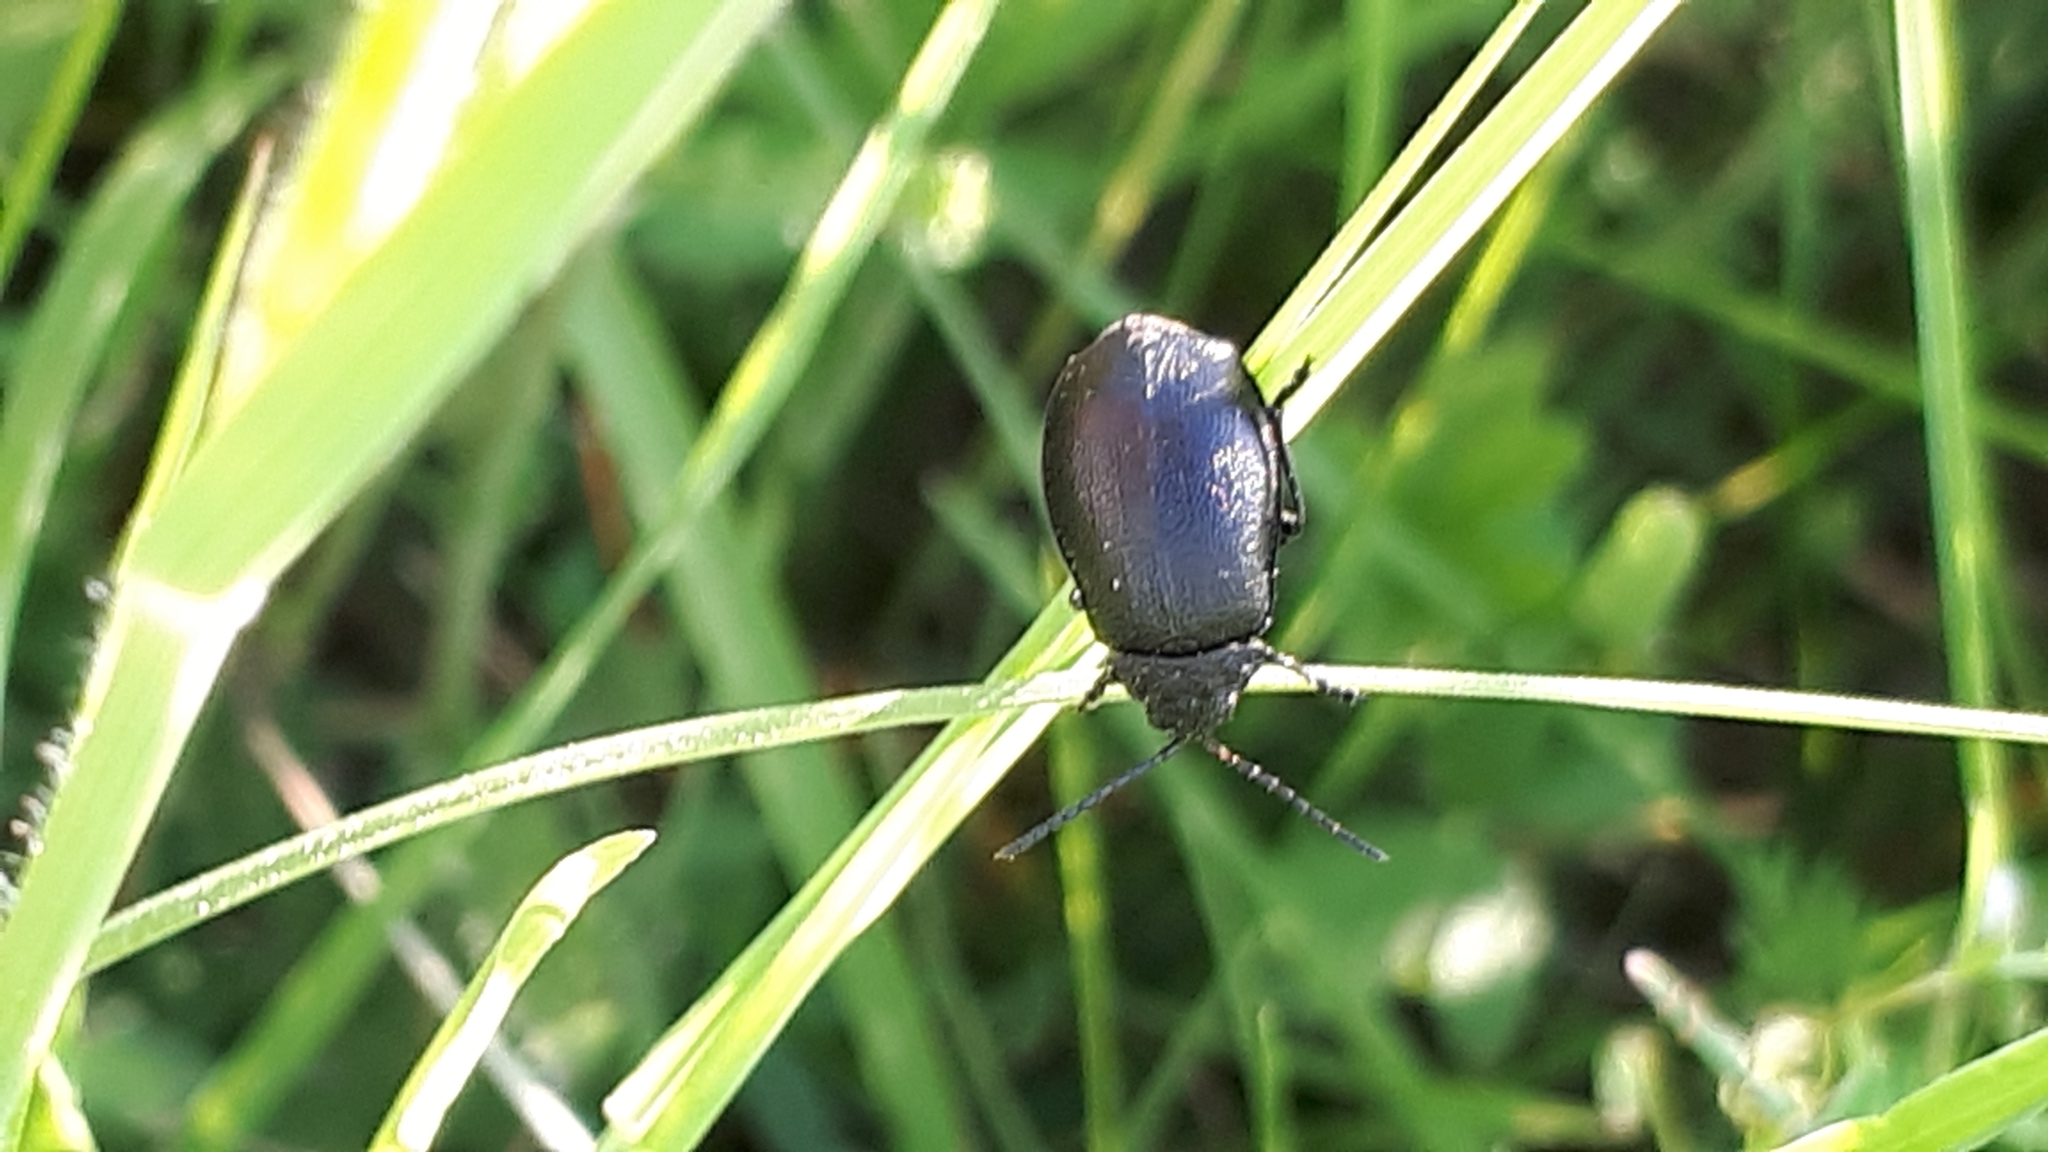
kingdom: Animalia
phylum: Arthropoda
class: Insecta
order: Coleoptera
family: Chrysomelidae
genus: Galeruca
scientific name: Galeruca tanaceti
